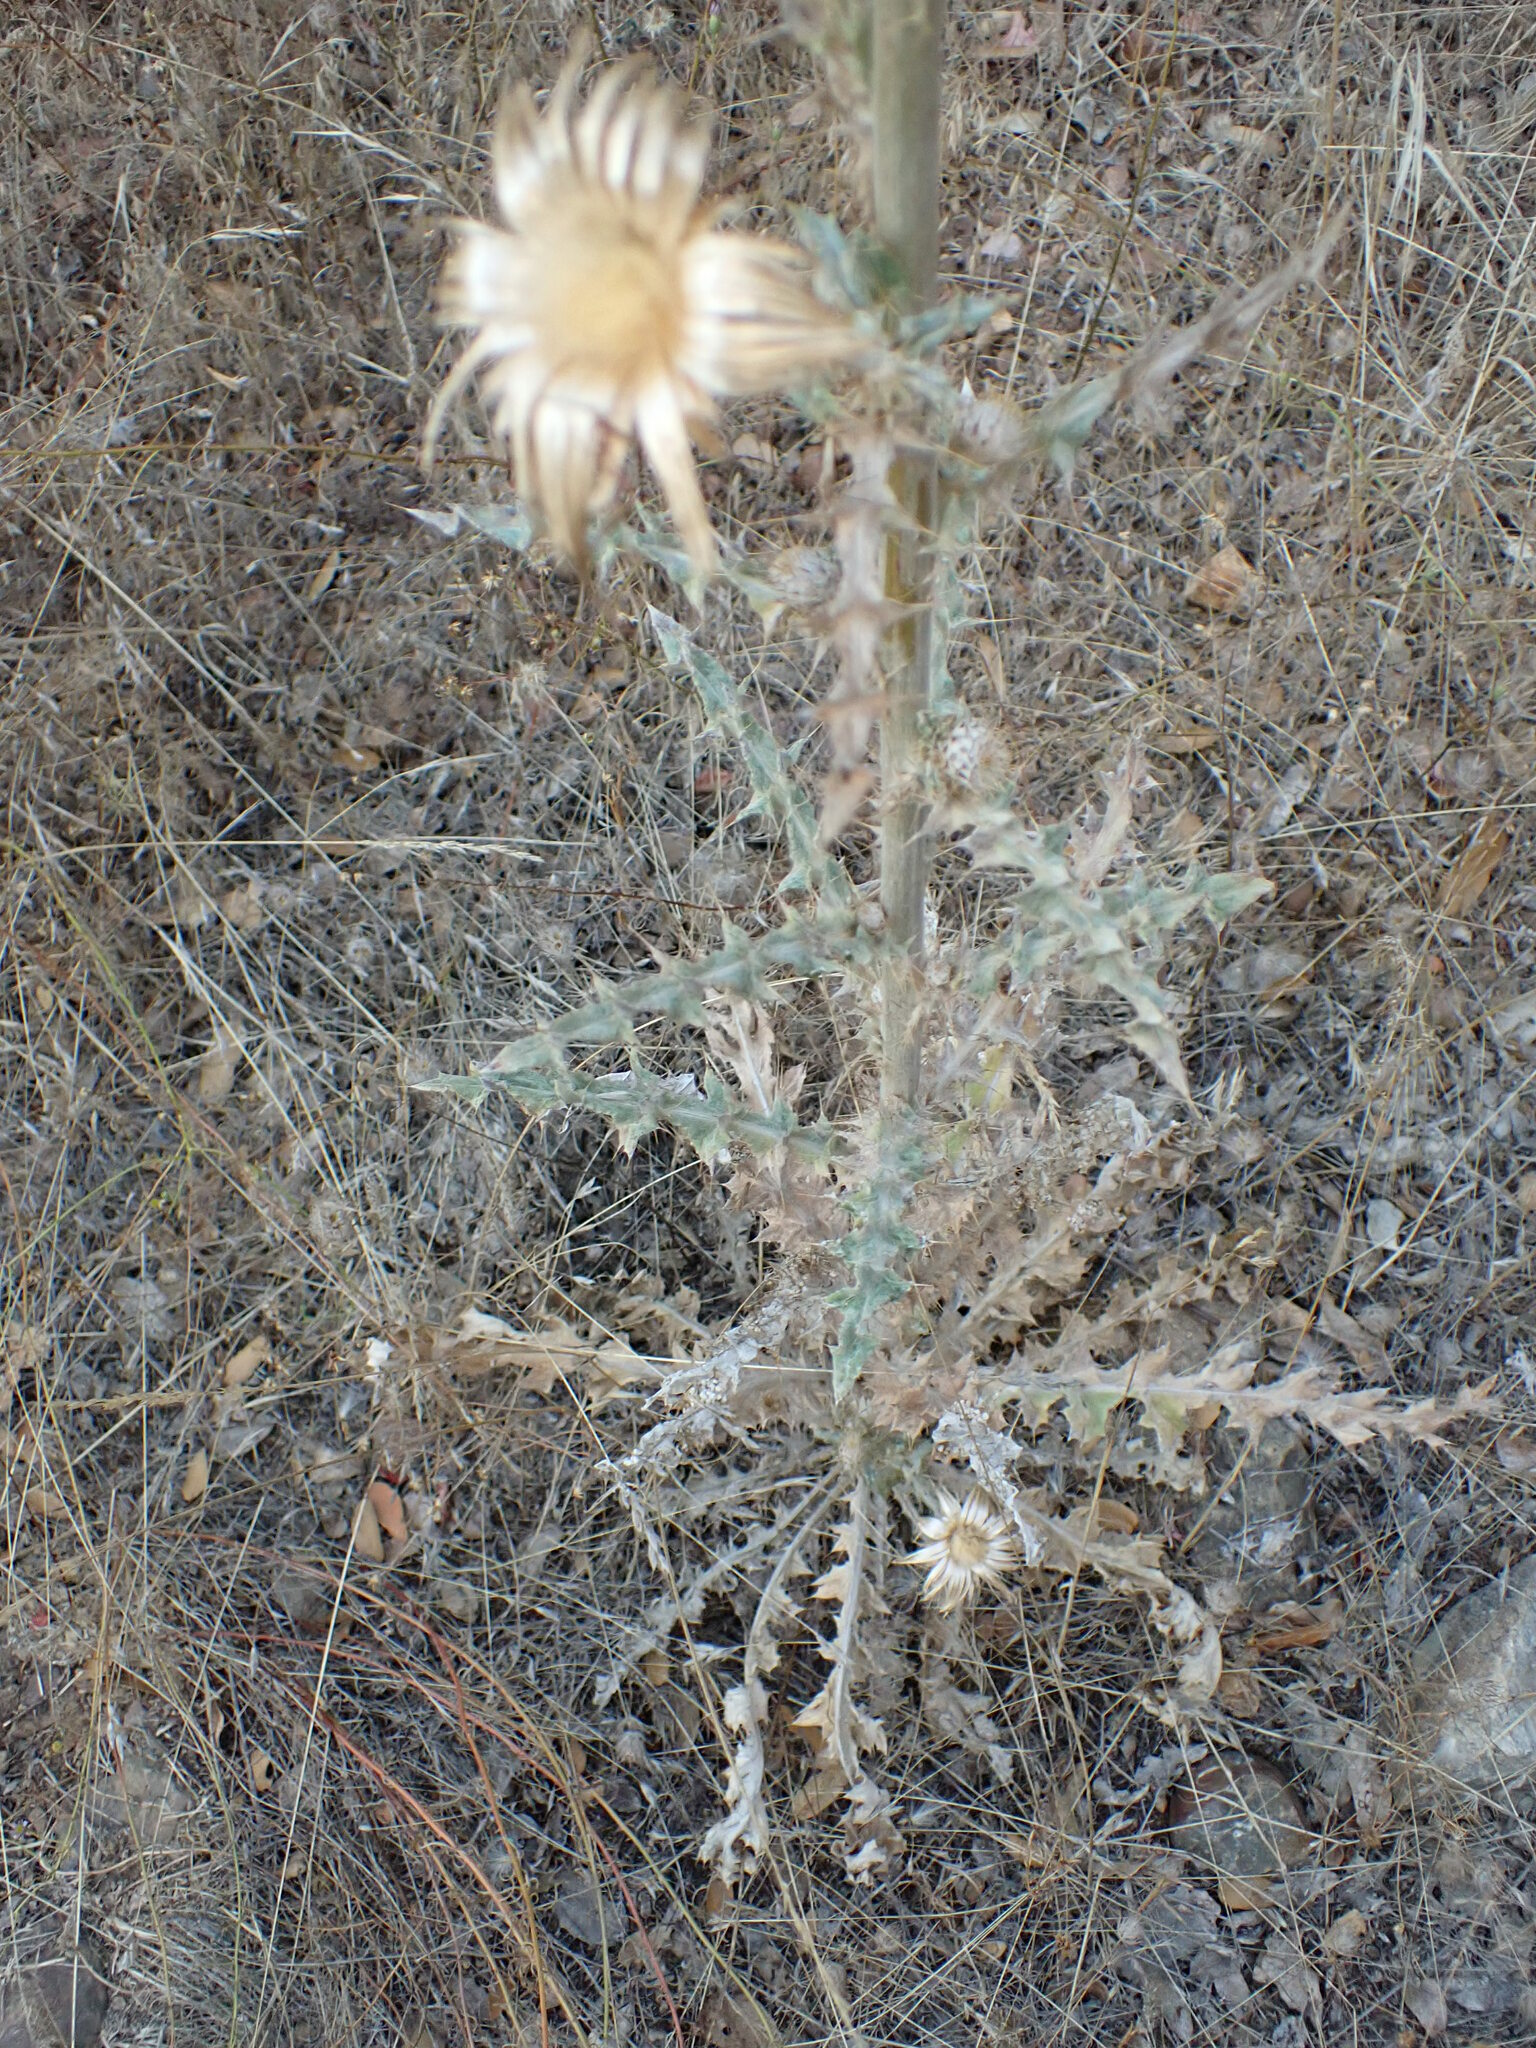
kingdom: Plantae
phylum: Tracheophyta
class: Magnoliopsida
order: Asterales
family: Asteraceae
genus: Cirsium
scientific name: Cirsium occidentale
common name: Western thistle
